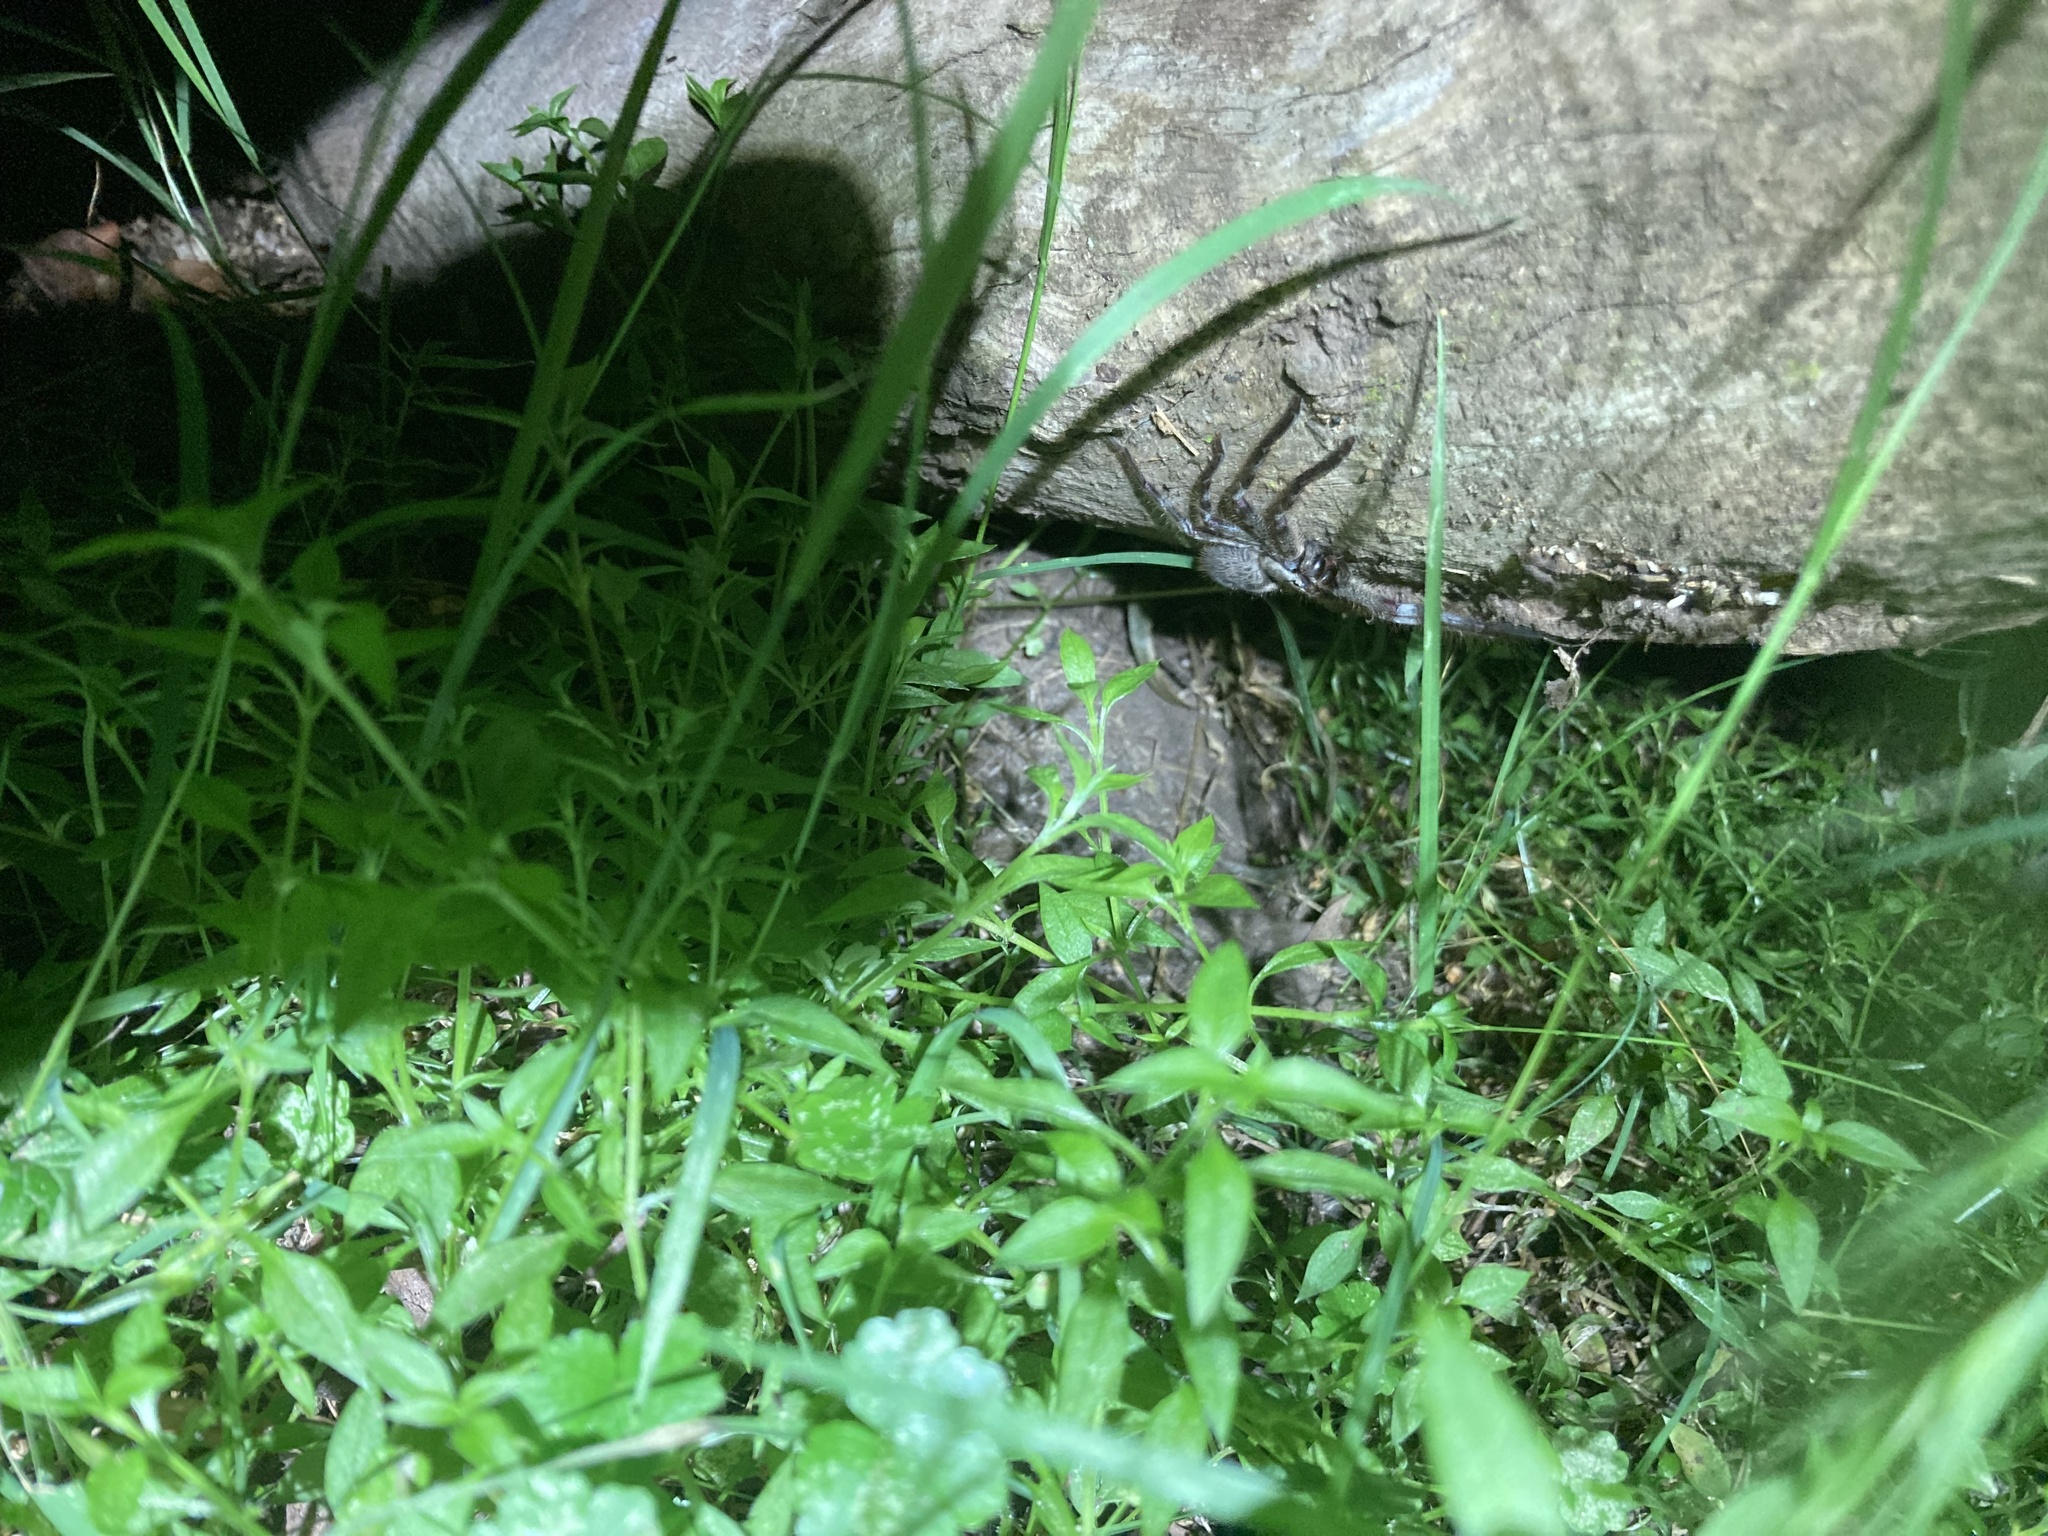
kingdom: Animalia
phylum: Arthropoda
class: Arachnida
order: Araneae
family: Sparassidae
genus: Isopeda
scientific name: Isopeda montana
